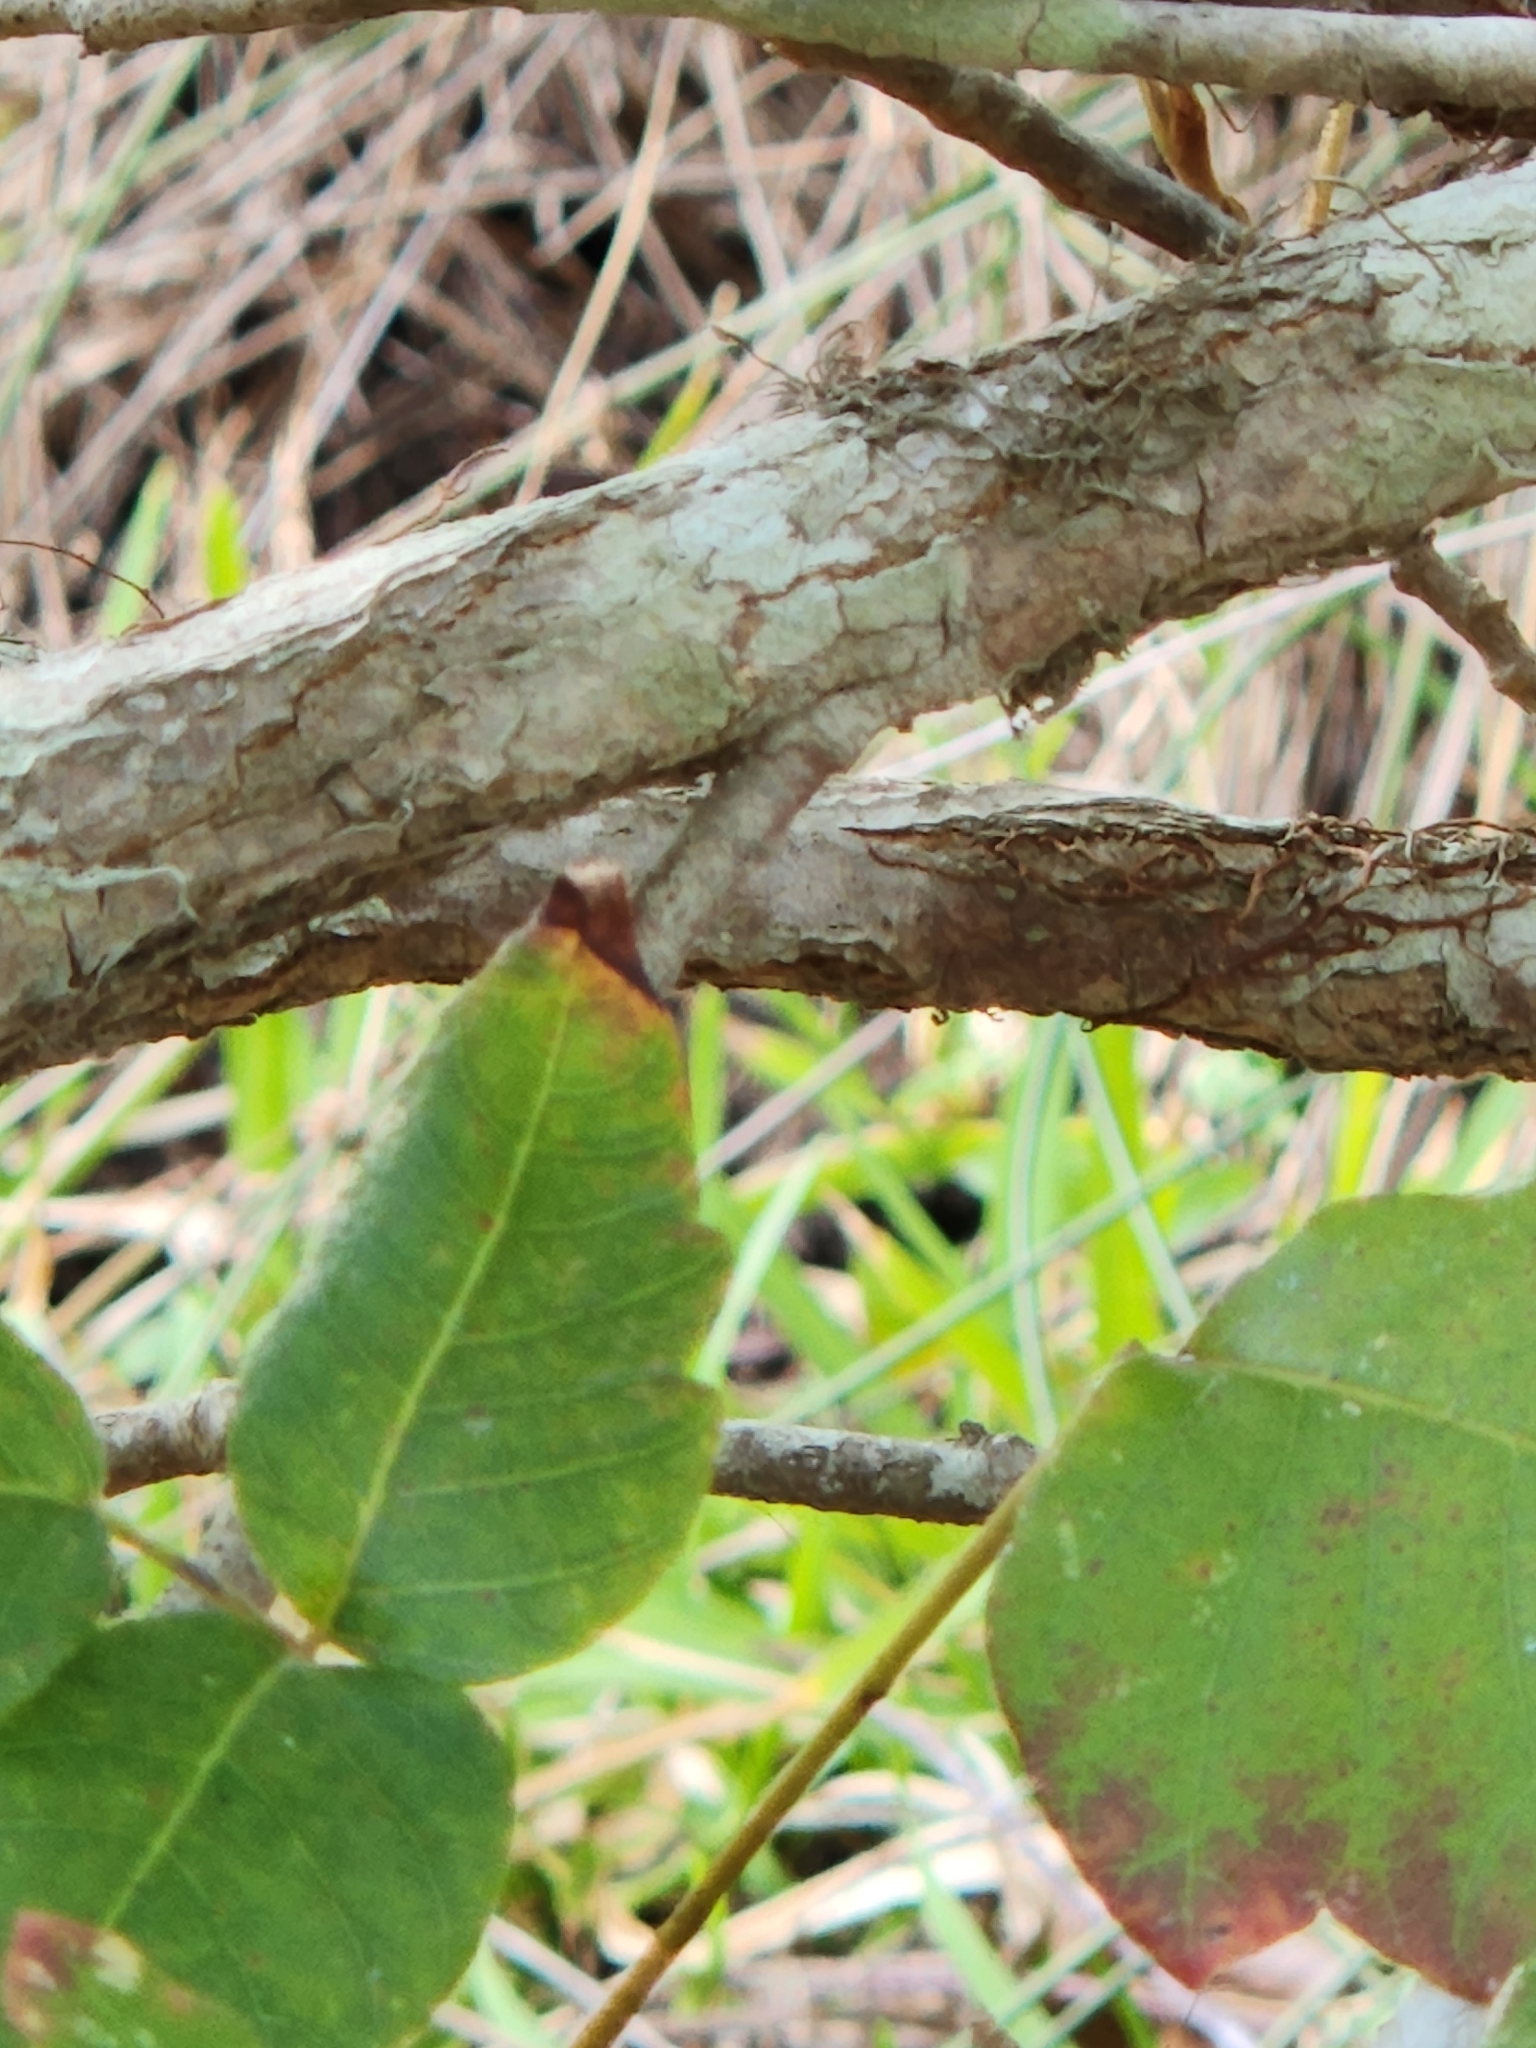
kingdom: Plantae
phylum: Tracheophyta
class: Magnoliopsida
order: Sapindales
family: Anacardiaceae
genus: Toxicodendron
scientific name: Toxicodendron radicans
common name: Poison ivy
